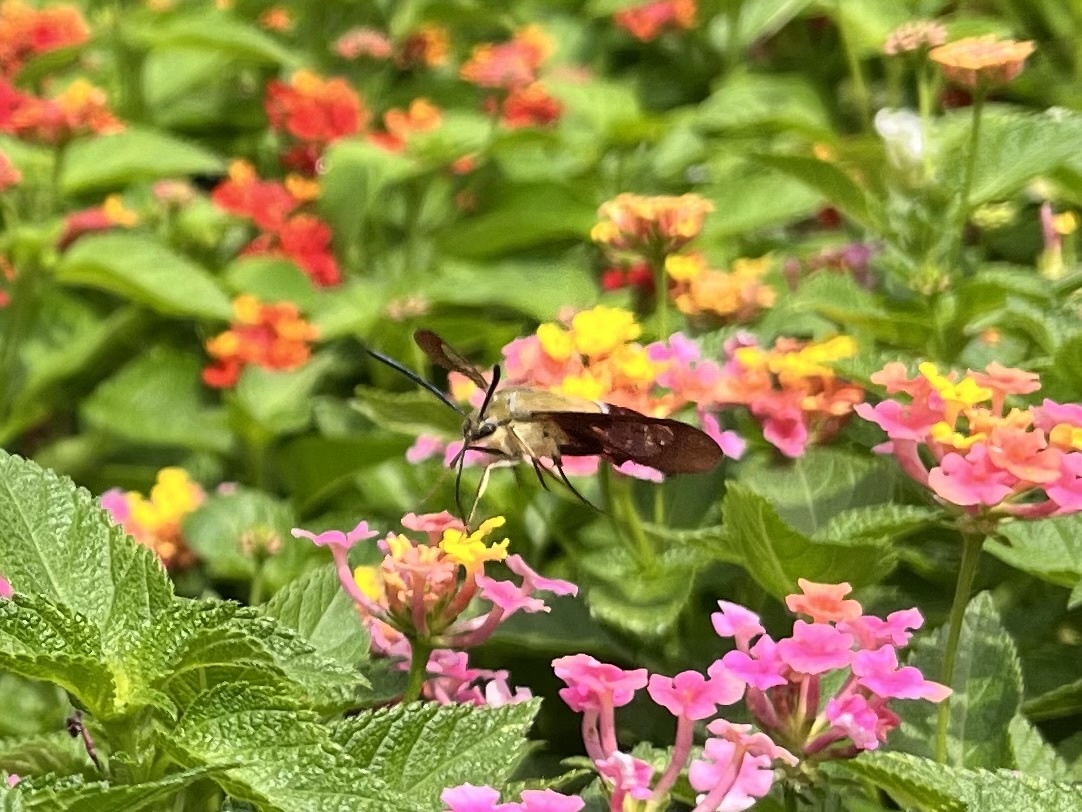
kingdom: Animalia
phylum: Arthropoda
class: Insecta
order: Lepidoptera
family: Sphingidae
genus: Hemaris
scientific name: Hemaris thysbe
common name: Common clear-wing
